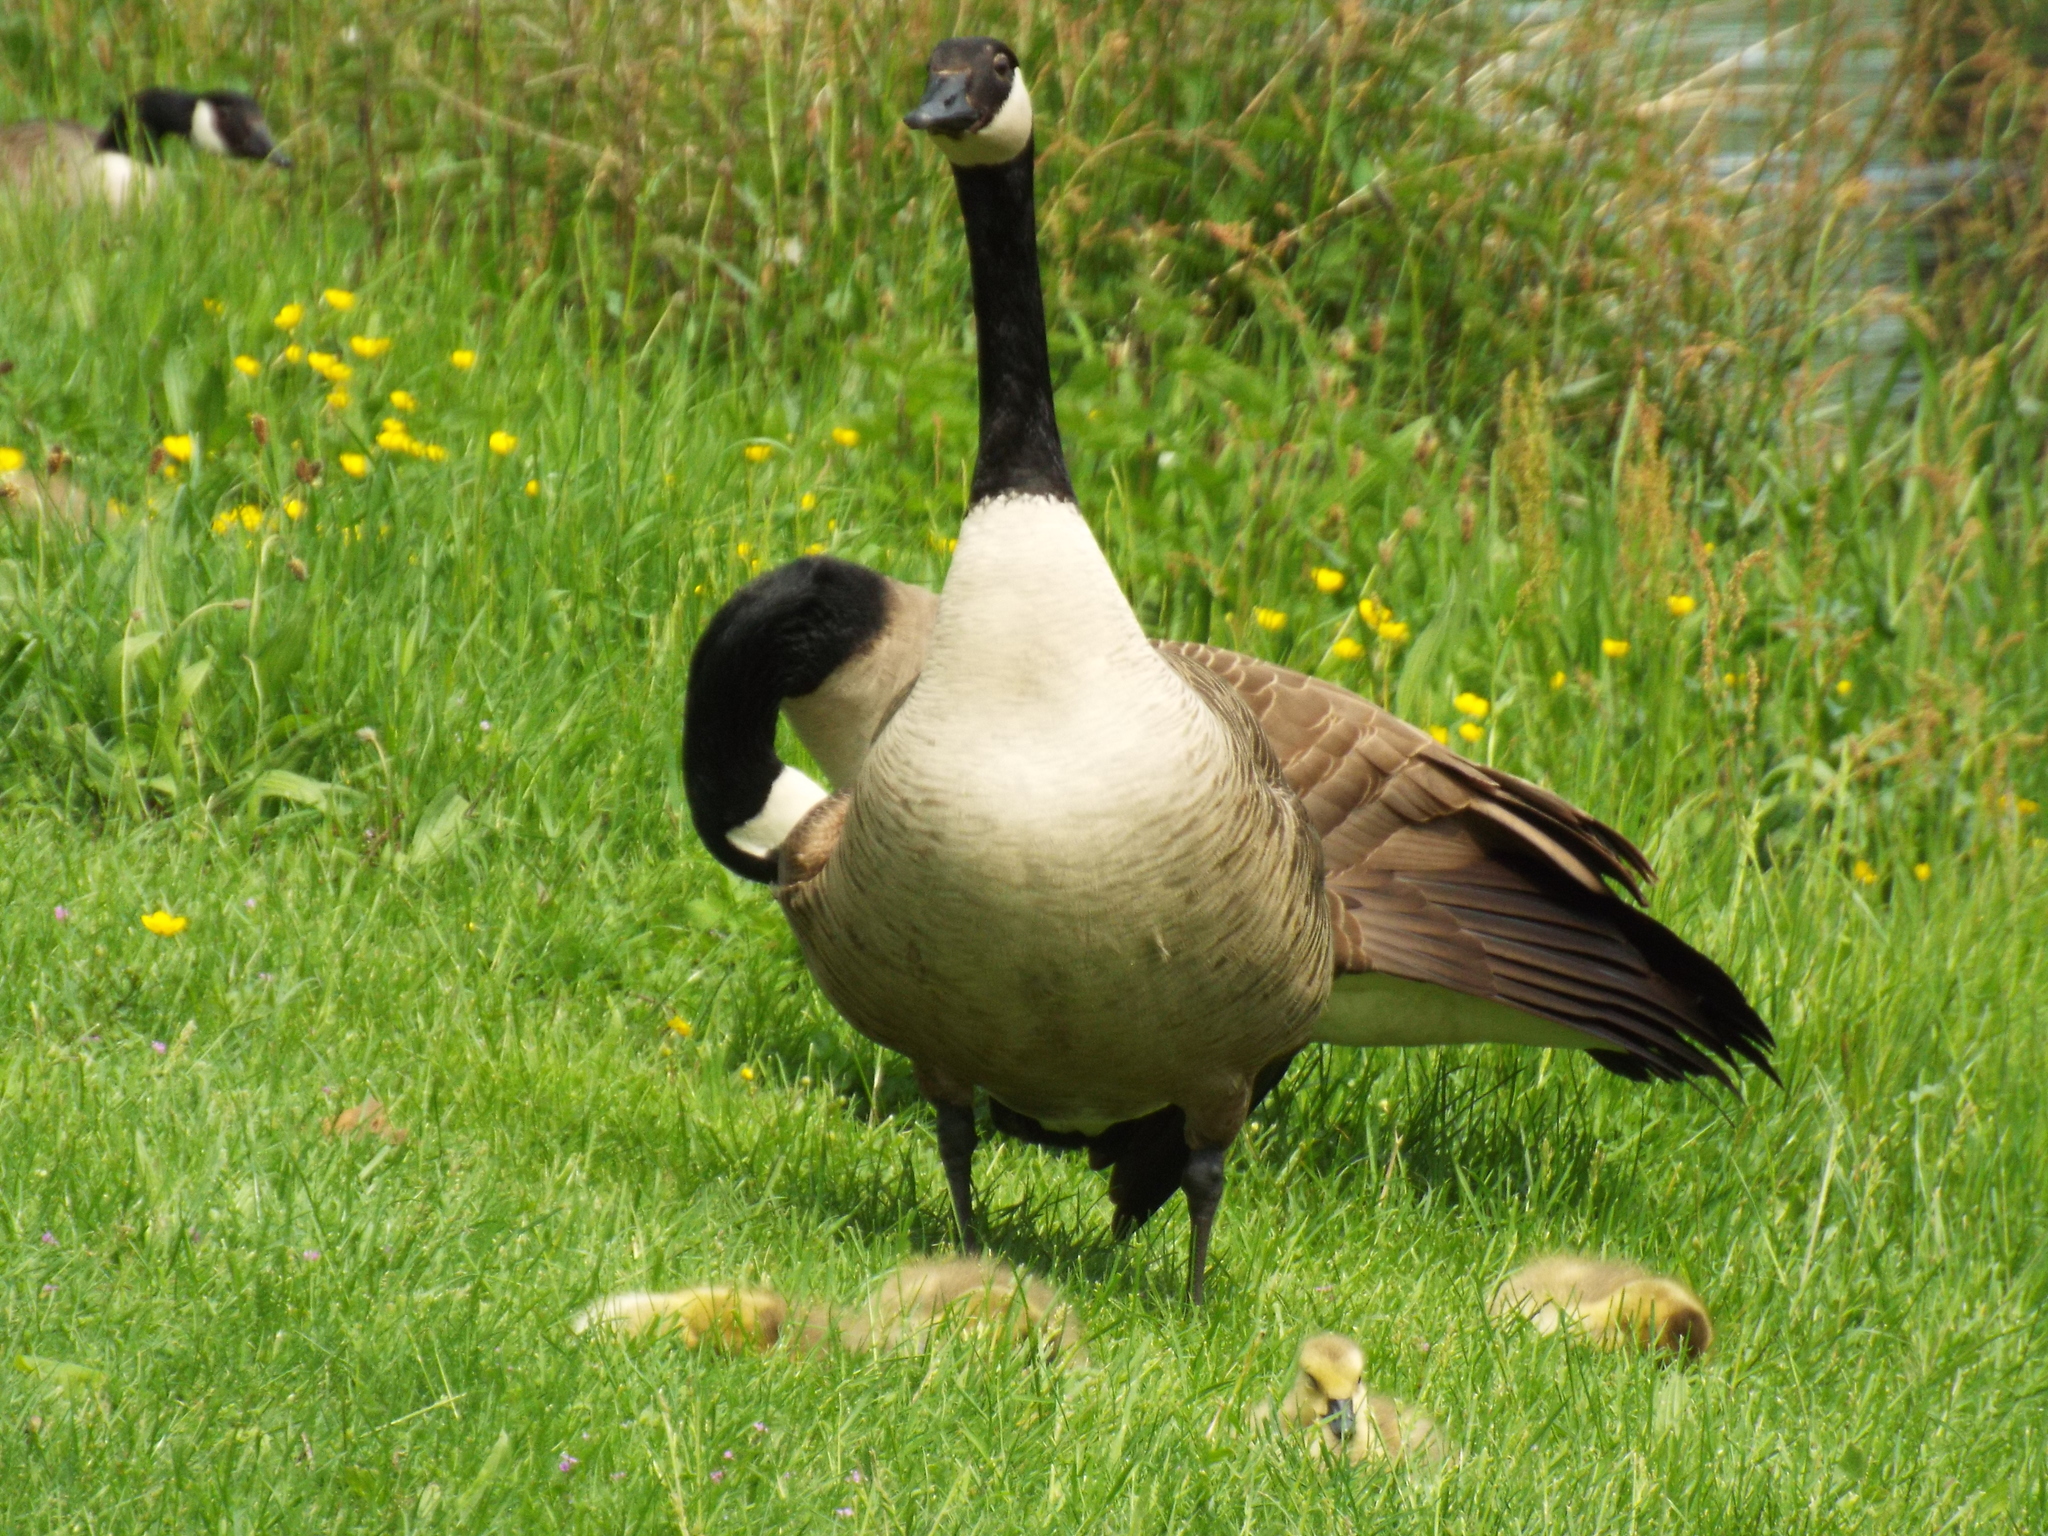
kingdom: Animalia
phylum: Chordata
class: Aves
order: Anseriformes
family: Anatidae
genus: Branta
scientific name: Branta canadensis
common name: Canada goose
